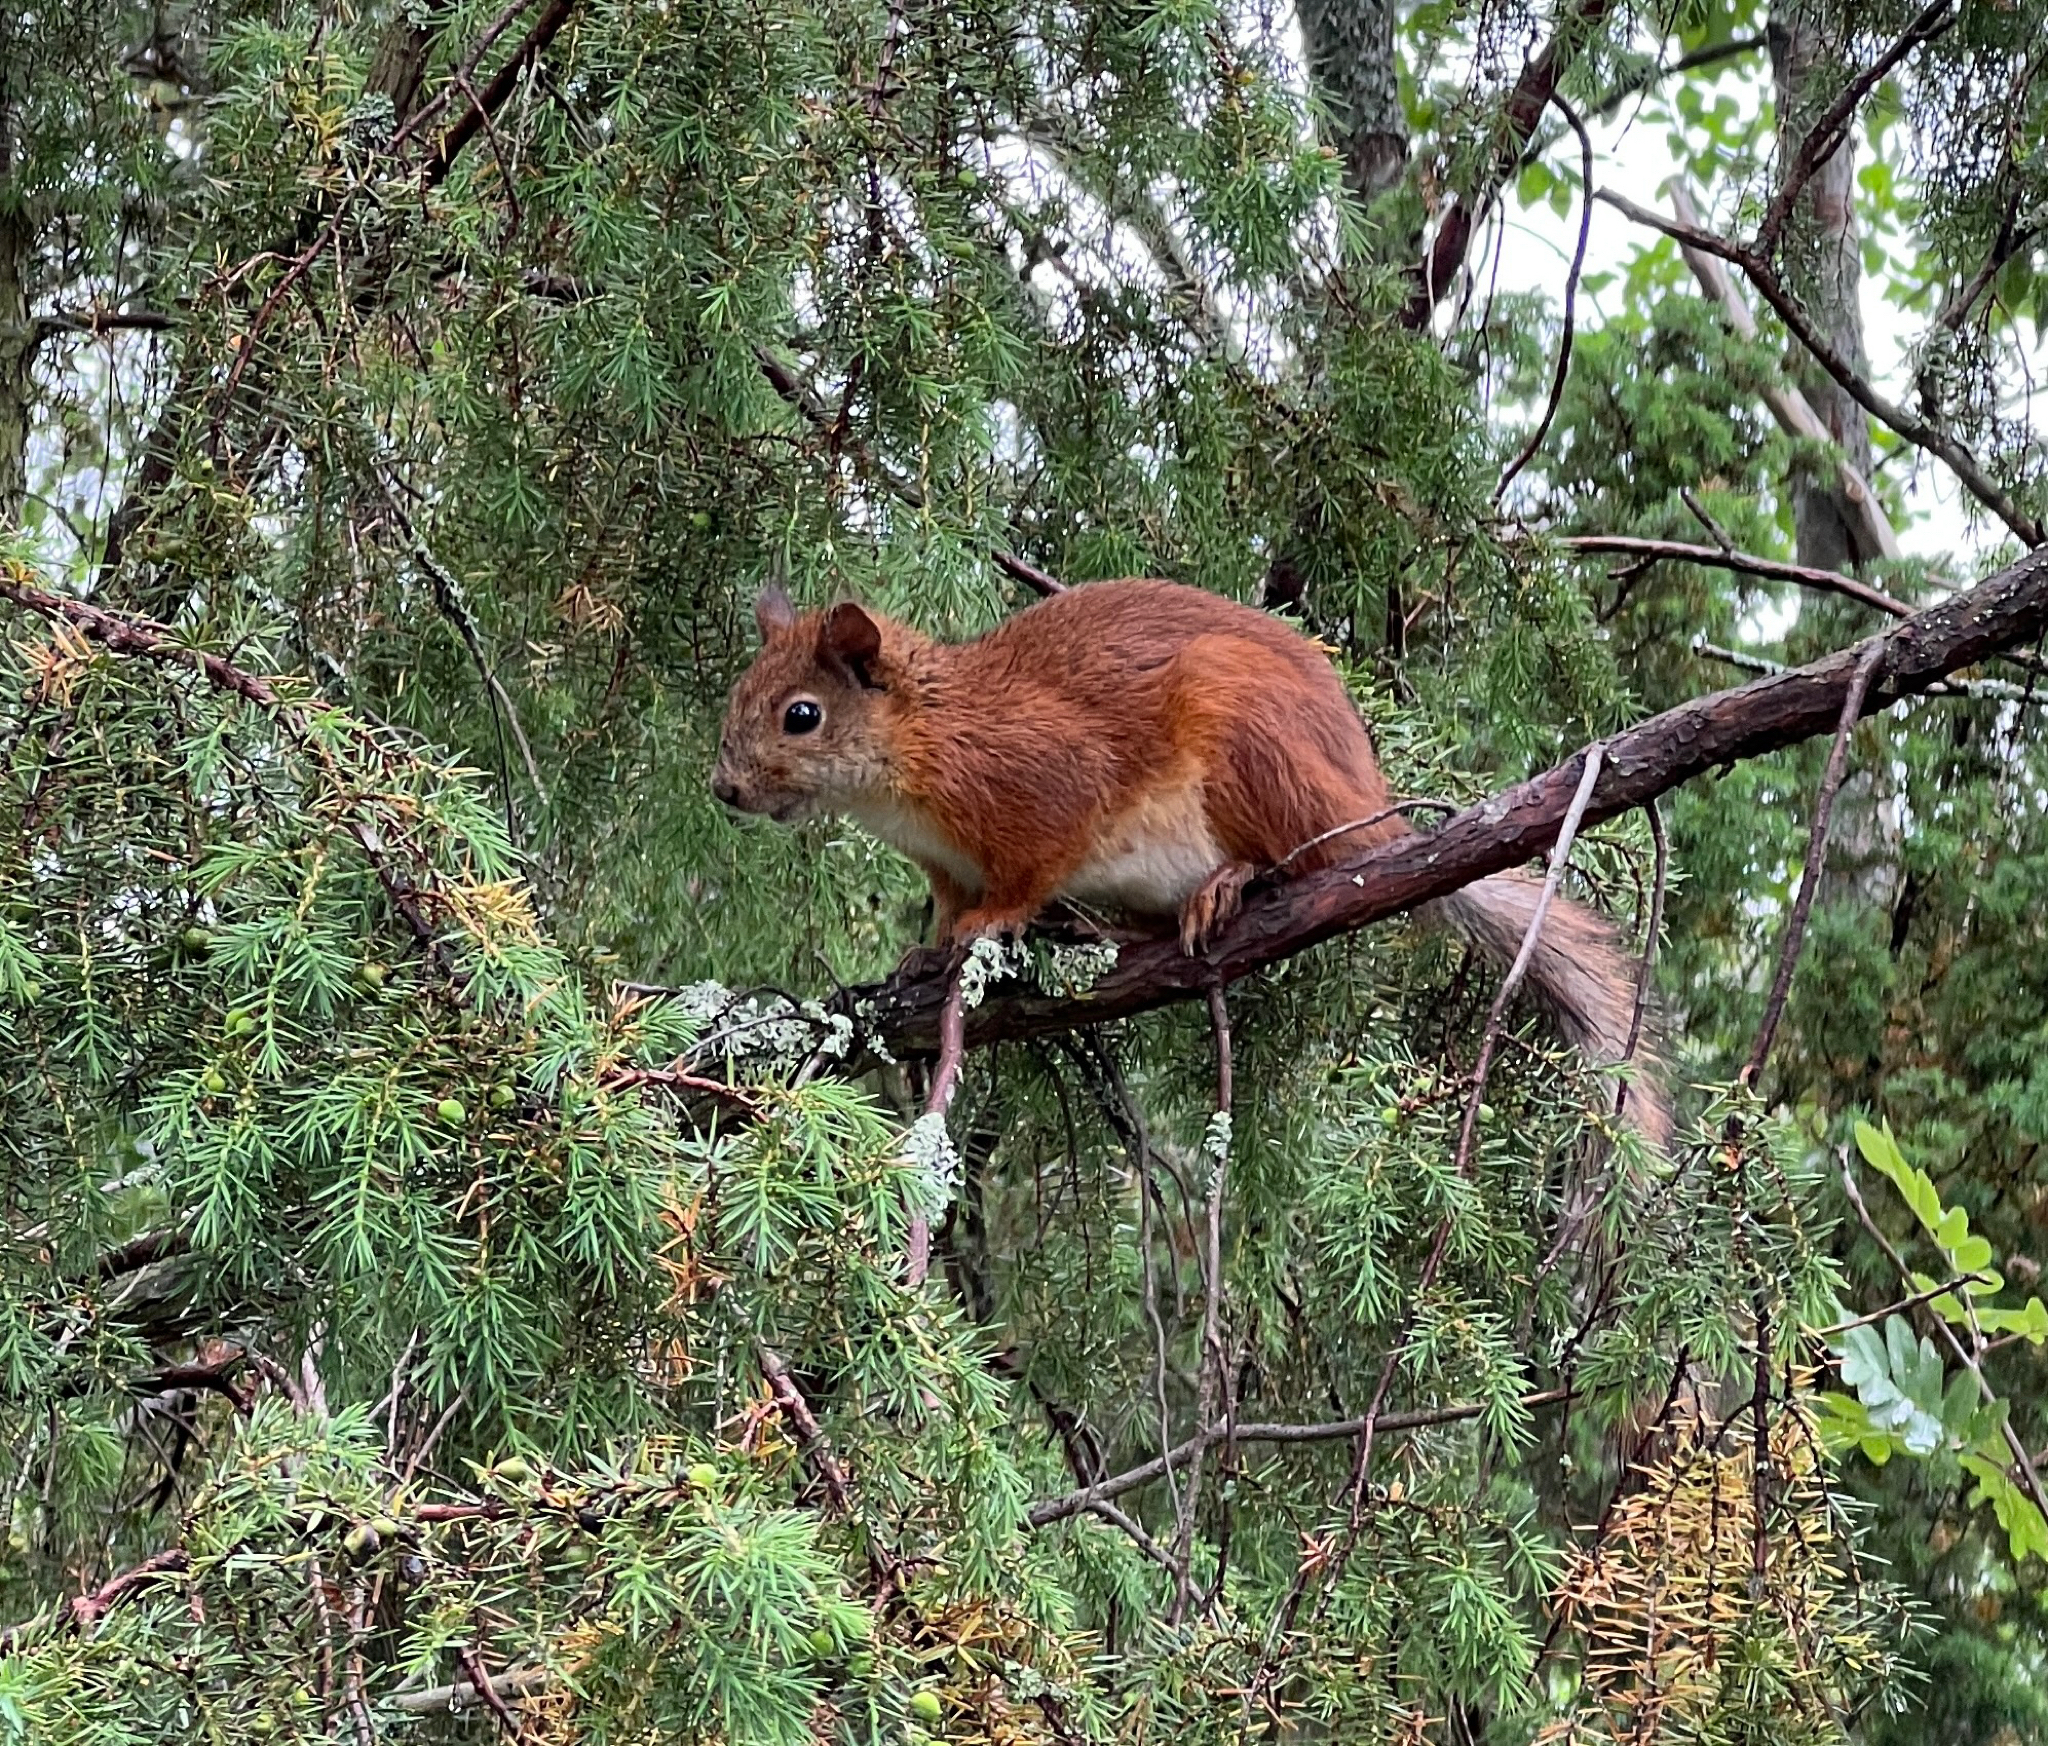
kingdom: Animalia
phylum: Chordata
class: Mammalia
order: Rodentia
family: Sciuridae
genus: Sciurus
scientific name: Sciurus vulgaris
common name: Eurasian red squirrel
